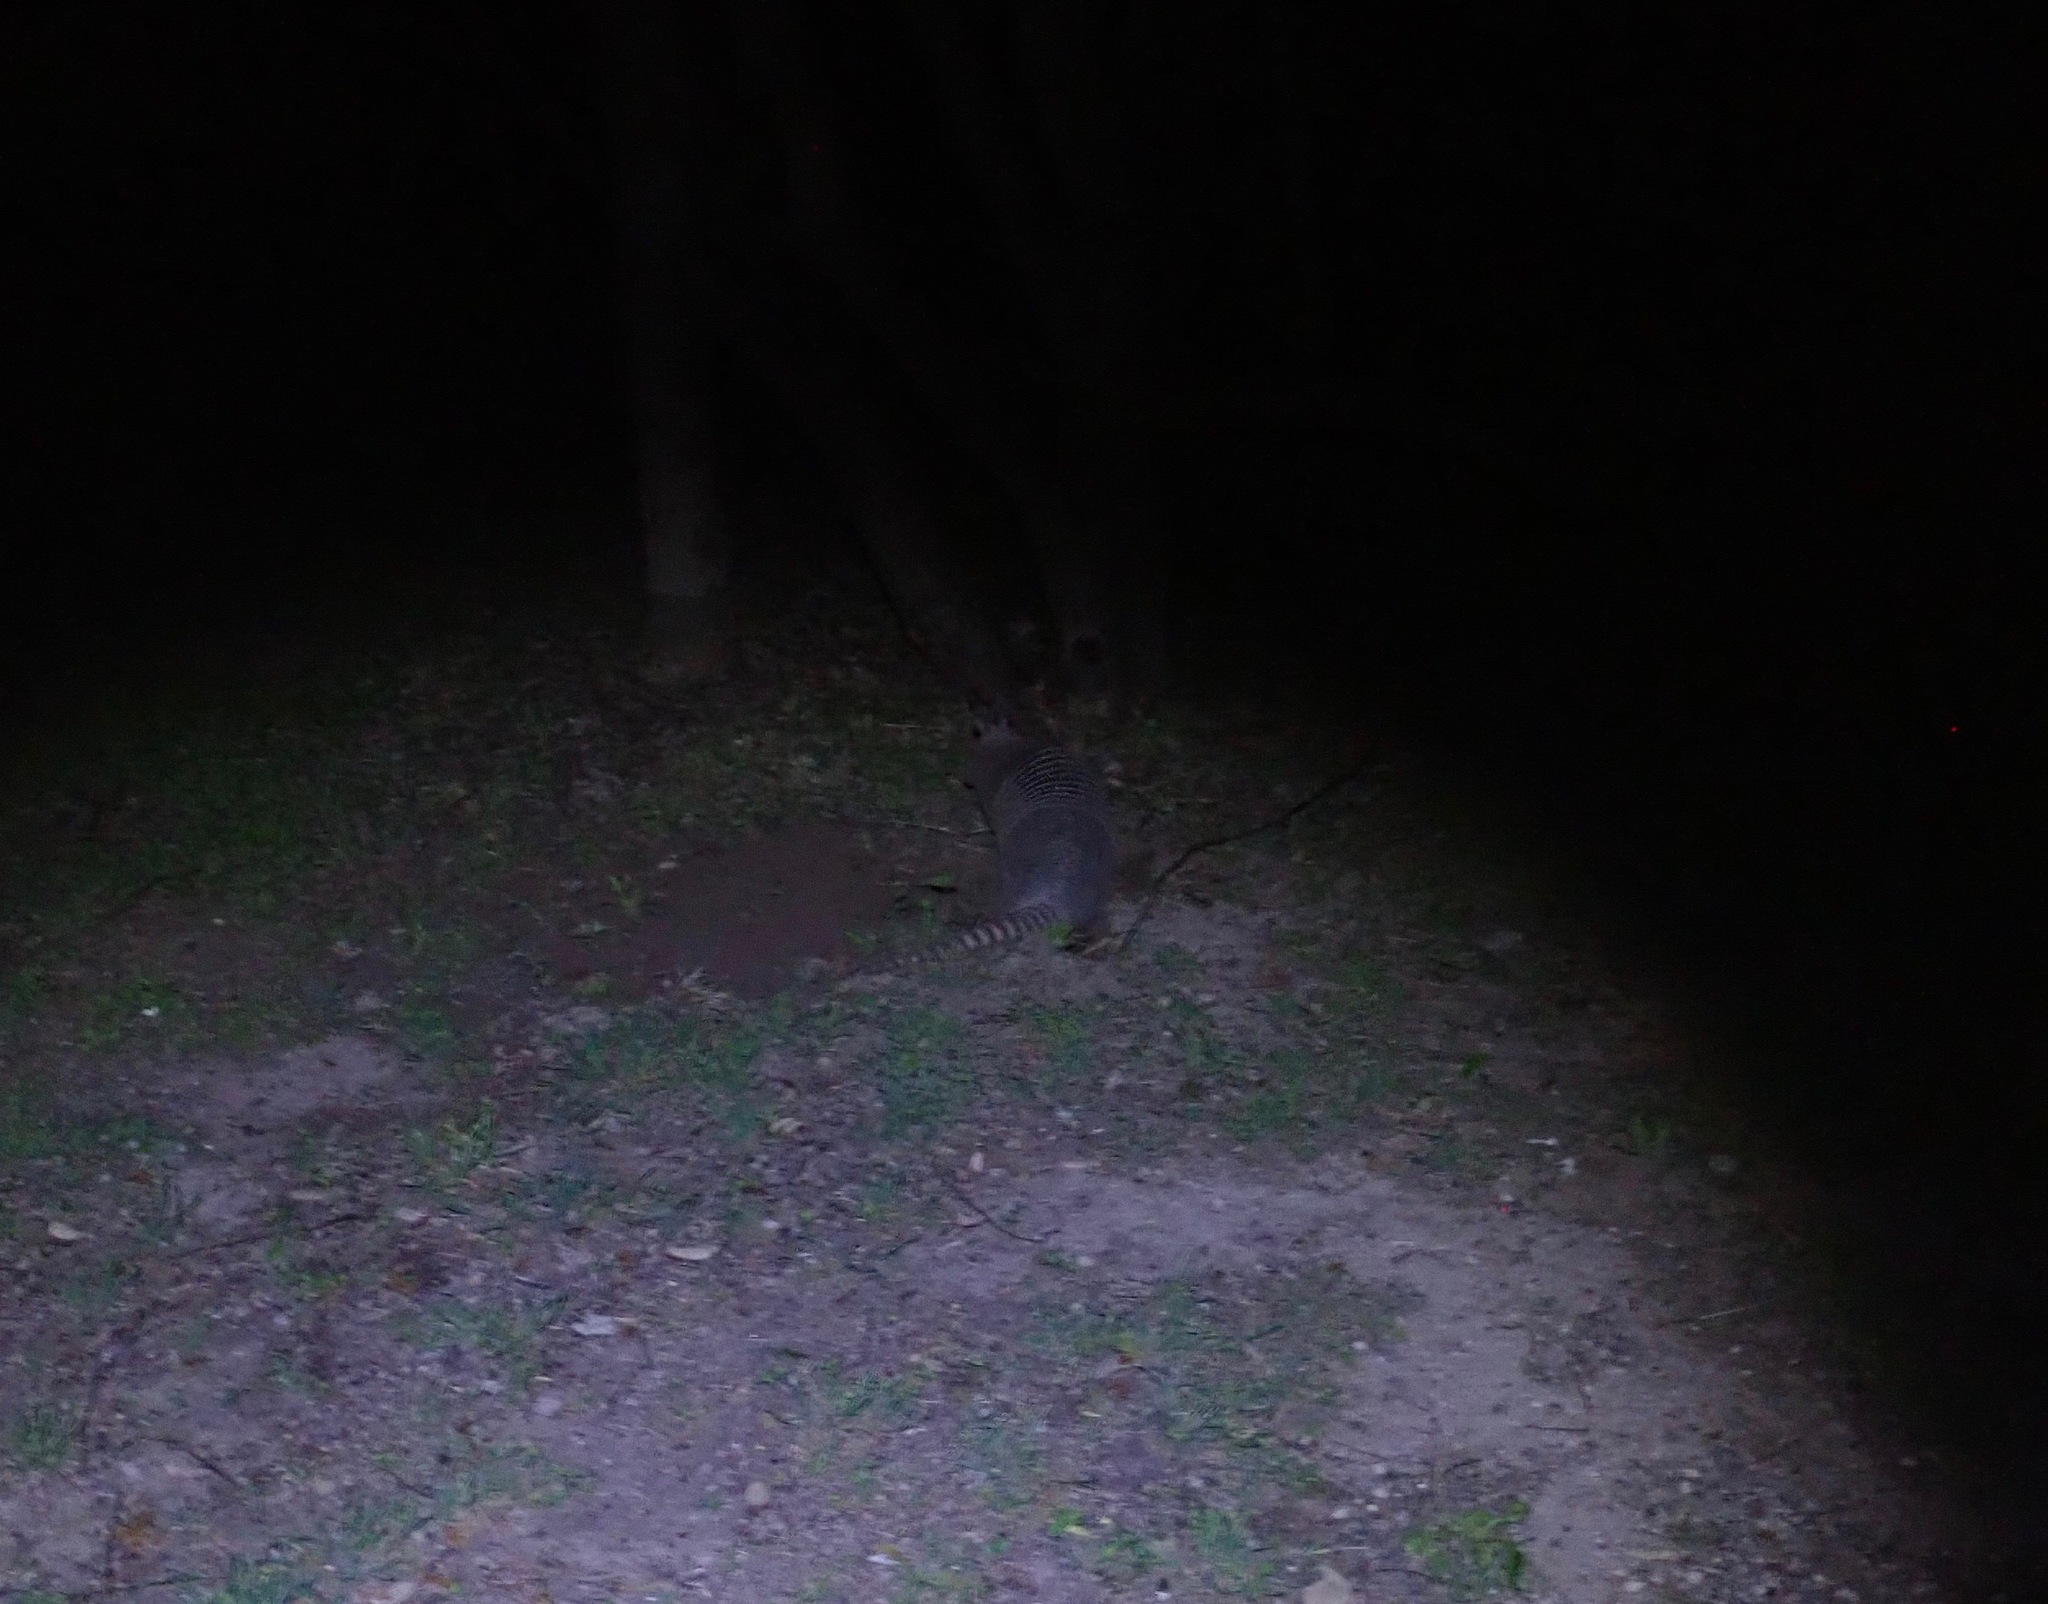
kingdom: Animalia
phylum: Chordata
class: Mammalia
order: Cingulata
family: Dasypodidae
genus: Dasypus
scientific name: Dasypus novemcinctus
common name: Nine-banded armadillo
